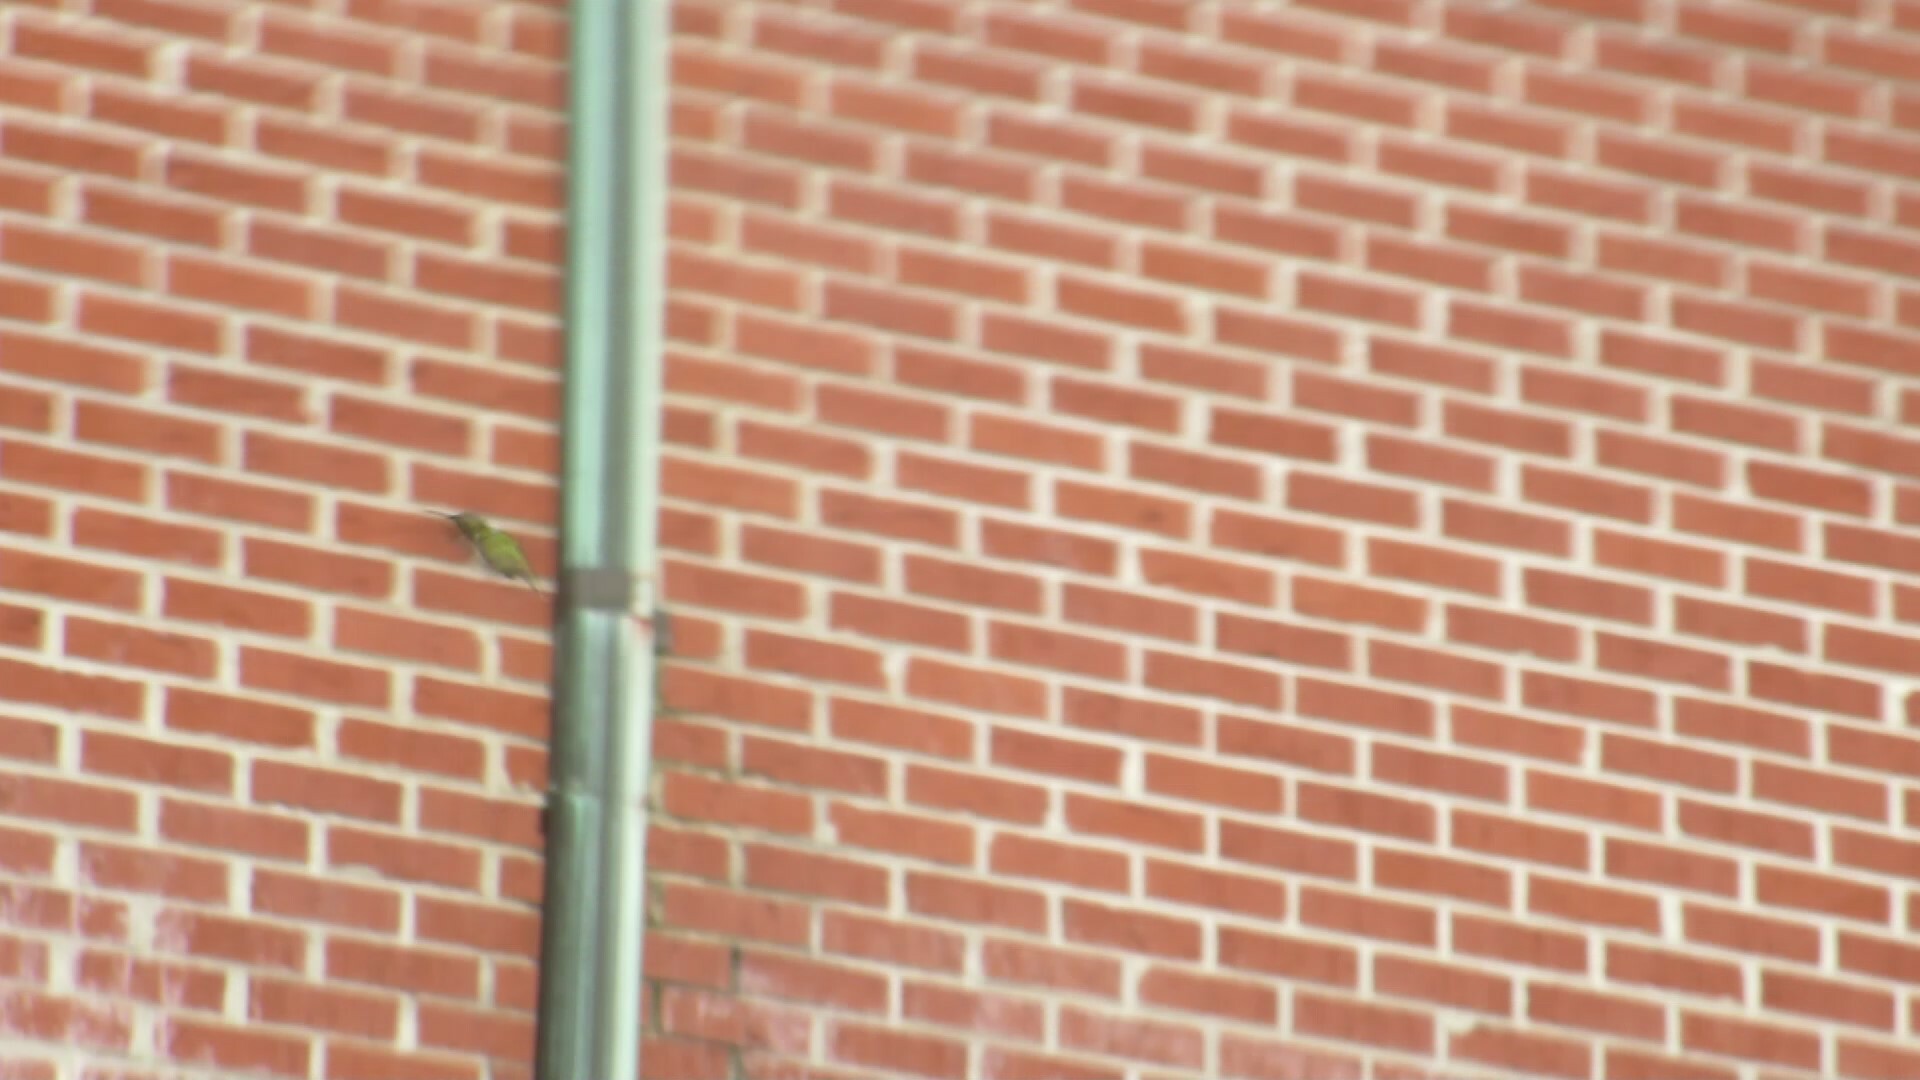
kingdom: Animalia
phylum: Chordata
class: Aves
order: Apodiformes
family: Trochilidae
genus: Archilochus
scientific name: Archilochus colubris
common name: Ruby-throated hummingbird
